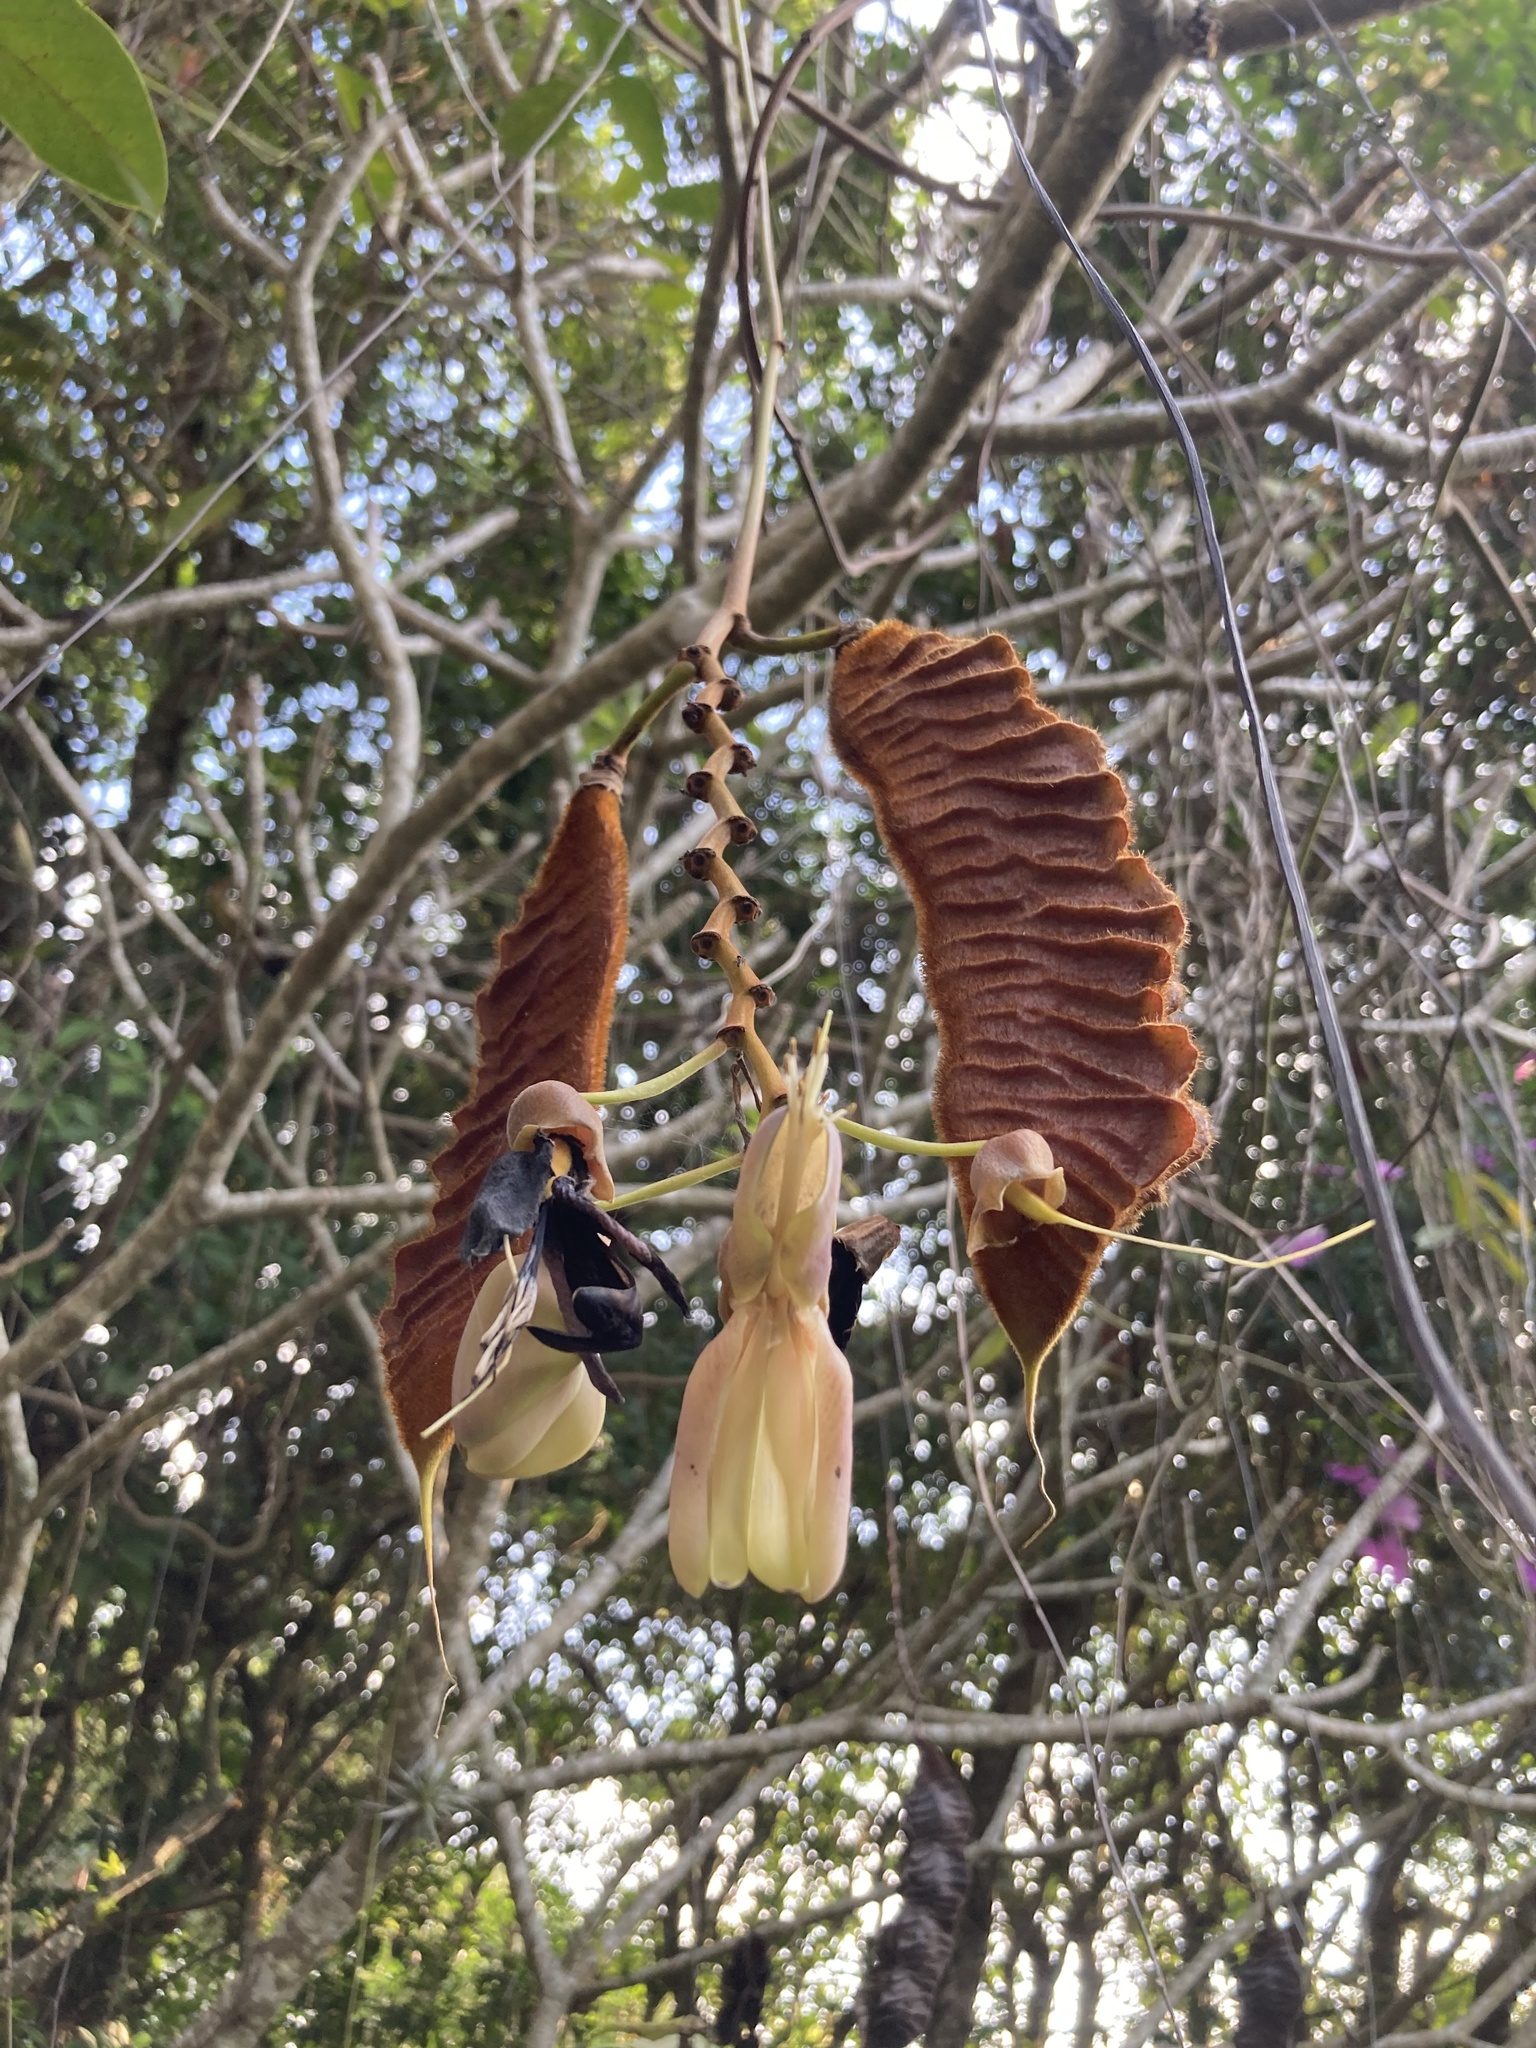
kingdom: Plantae
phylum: Tracheophyta
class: Magnoliopsida
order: Fabales
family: Fabaceae
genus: Mucuna
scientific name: Mucuna urens
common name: Red hamburger bean
